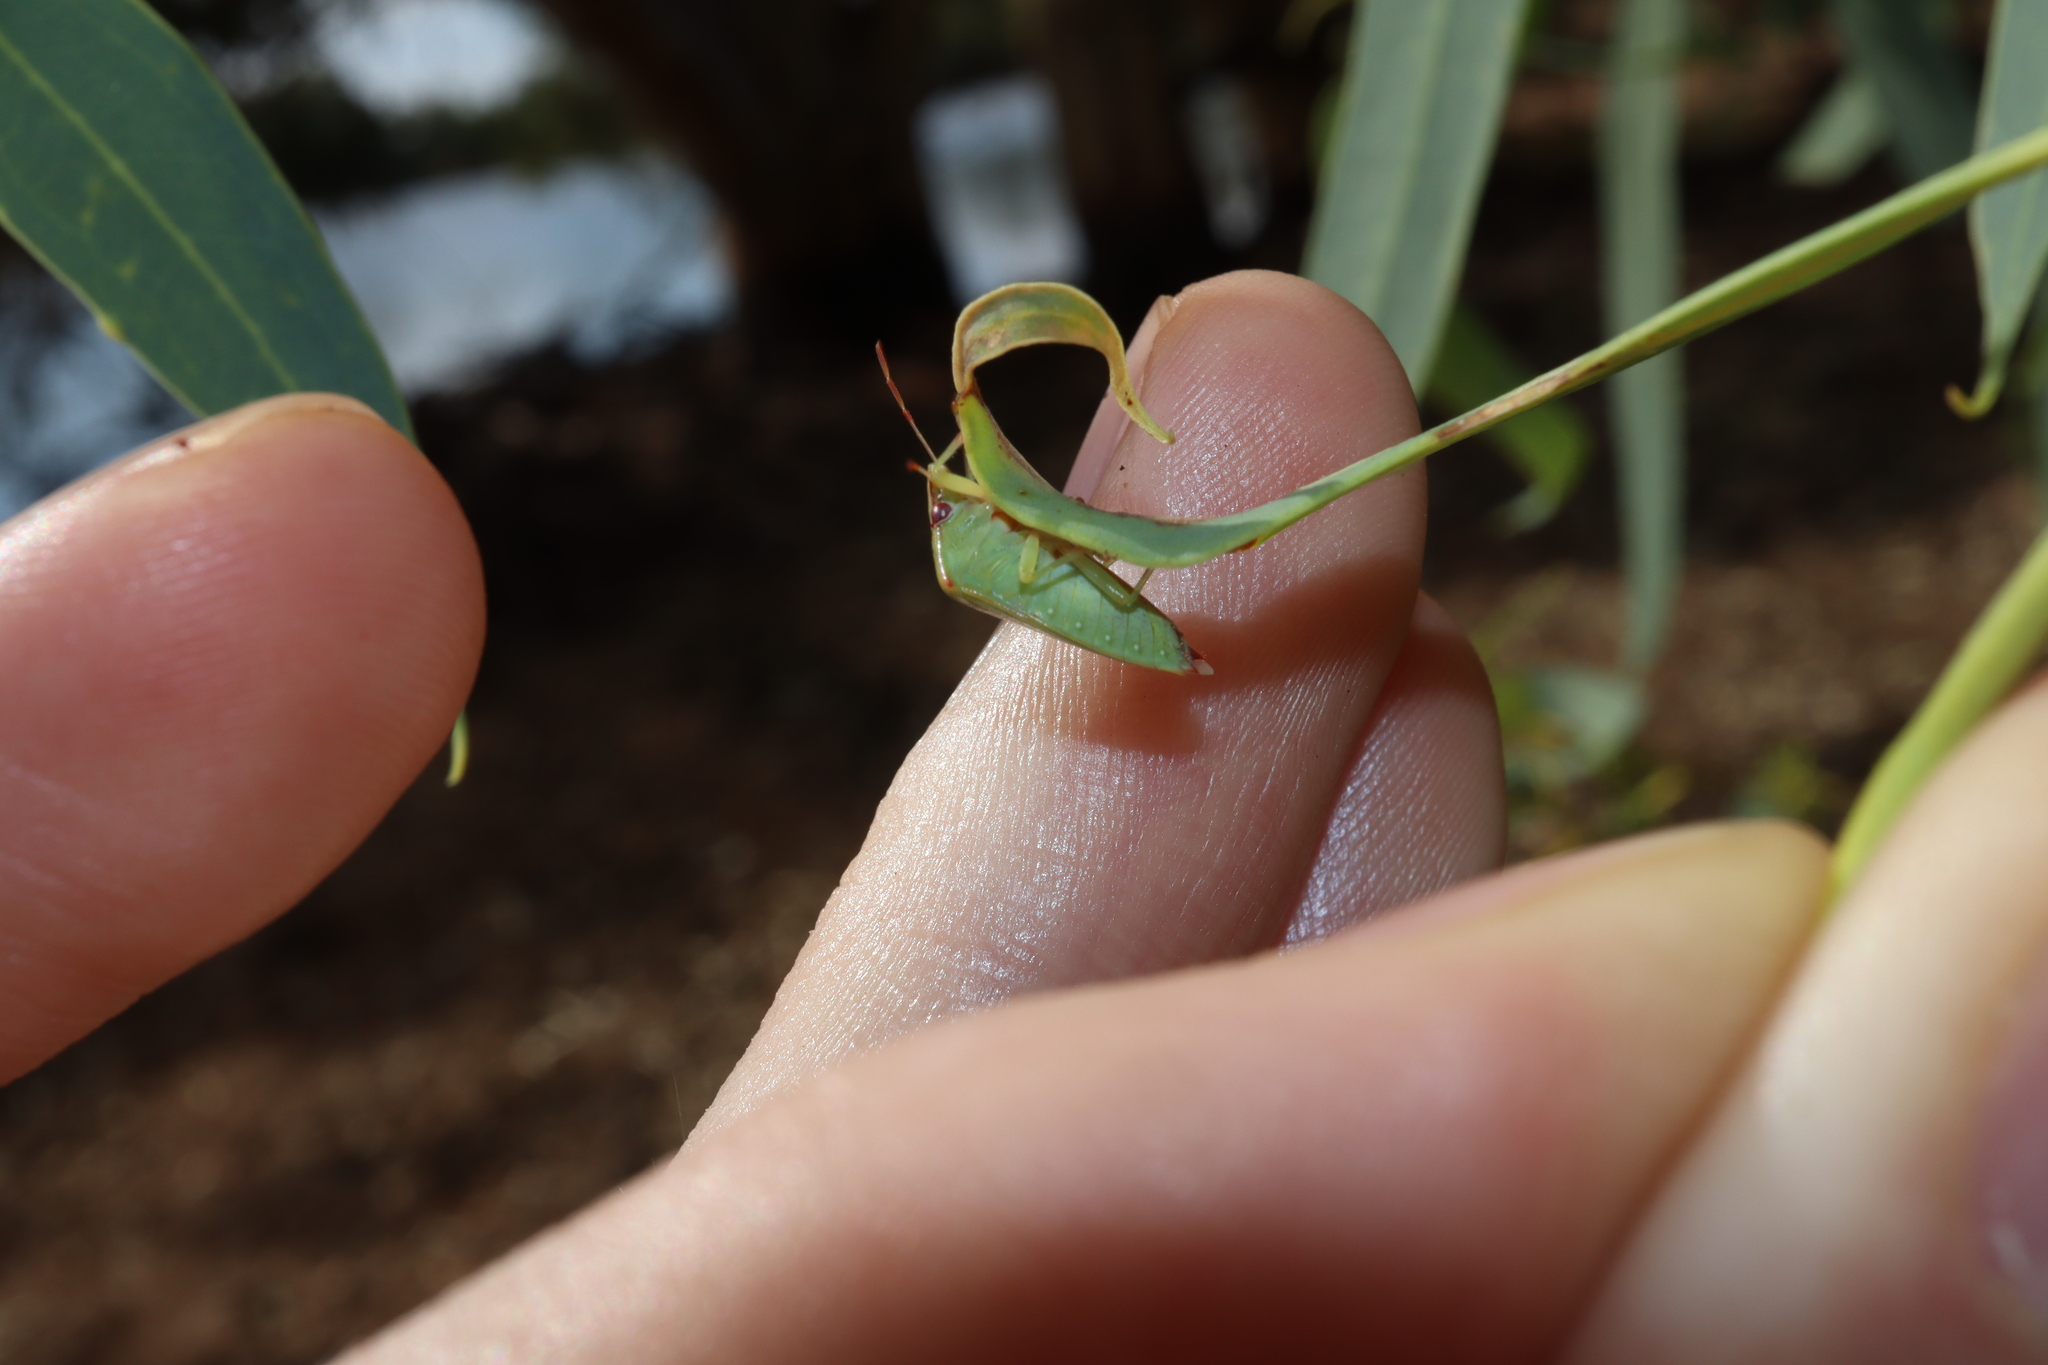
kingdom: Animalia
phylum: Arthropoda
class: Insecta
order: Hemiptera
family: Pentatomidae
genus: Petalaspis
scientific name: Petalaspis
